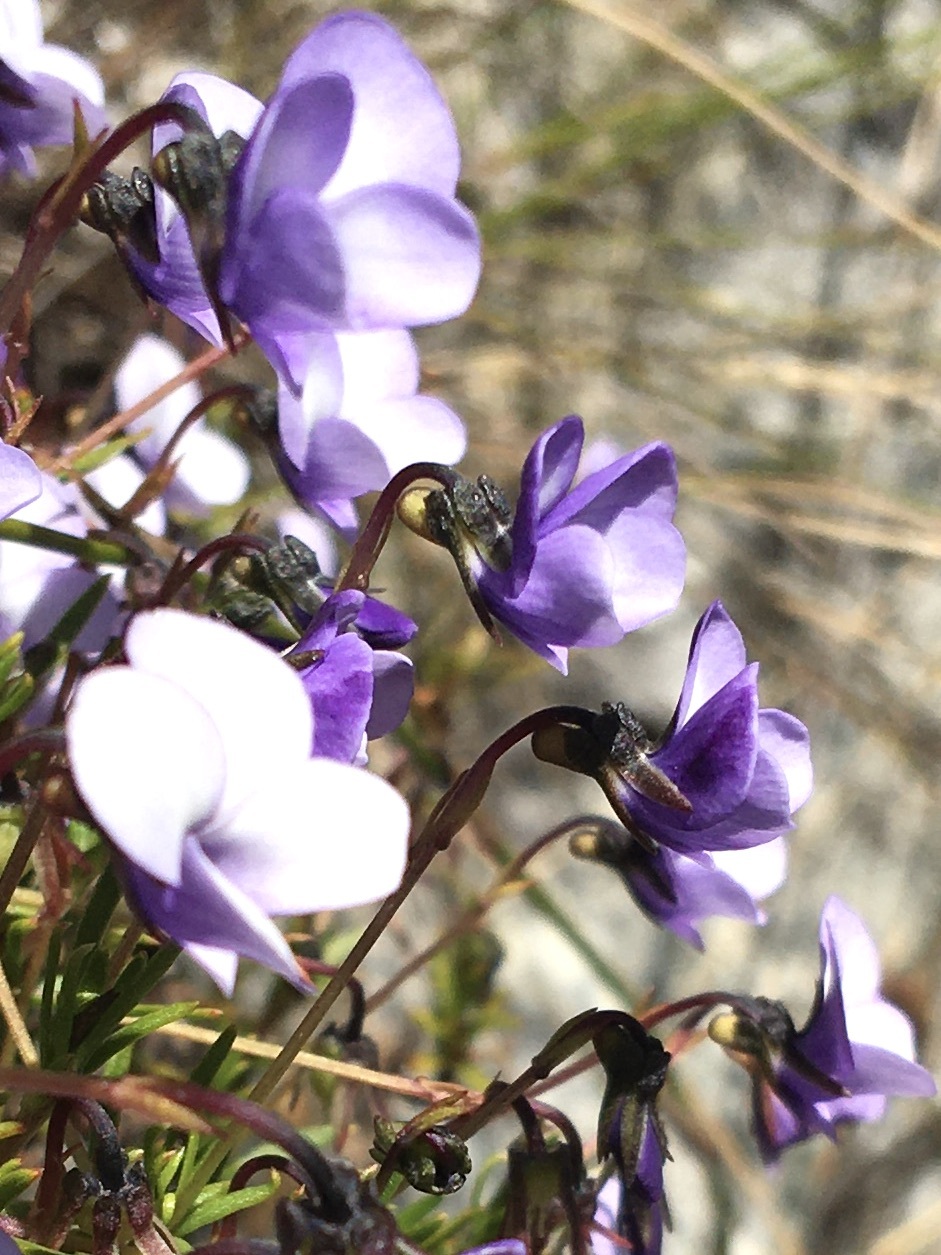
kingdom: Plantae
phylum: Tracheophyta
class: Magnoliopsida
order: Malpighiales
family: Violaceae
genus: Viola
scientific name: Viola decumbens
